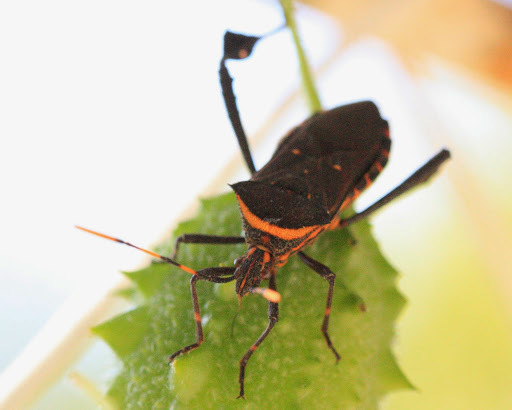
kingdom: Animalia
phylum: Arthropoda
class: Insecta
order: Hemiptera
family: Coreidae
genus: Leptoglossus
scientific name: Leptoglossus gonagra
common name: Citron bug
